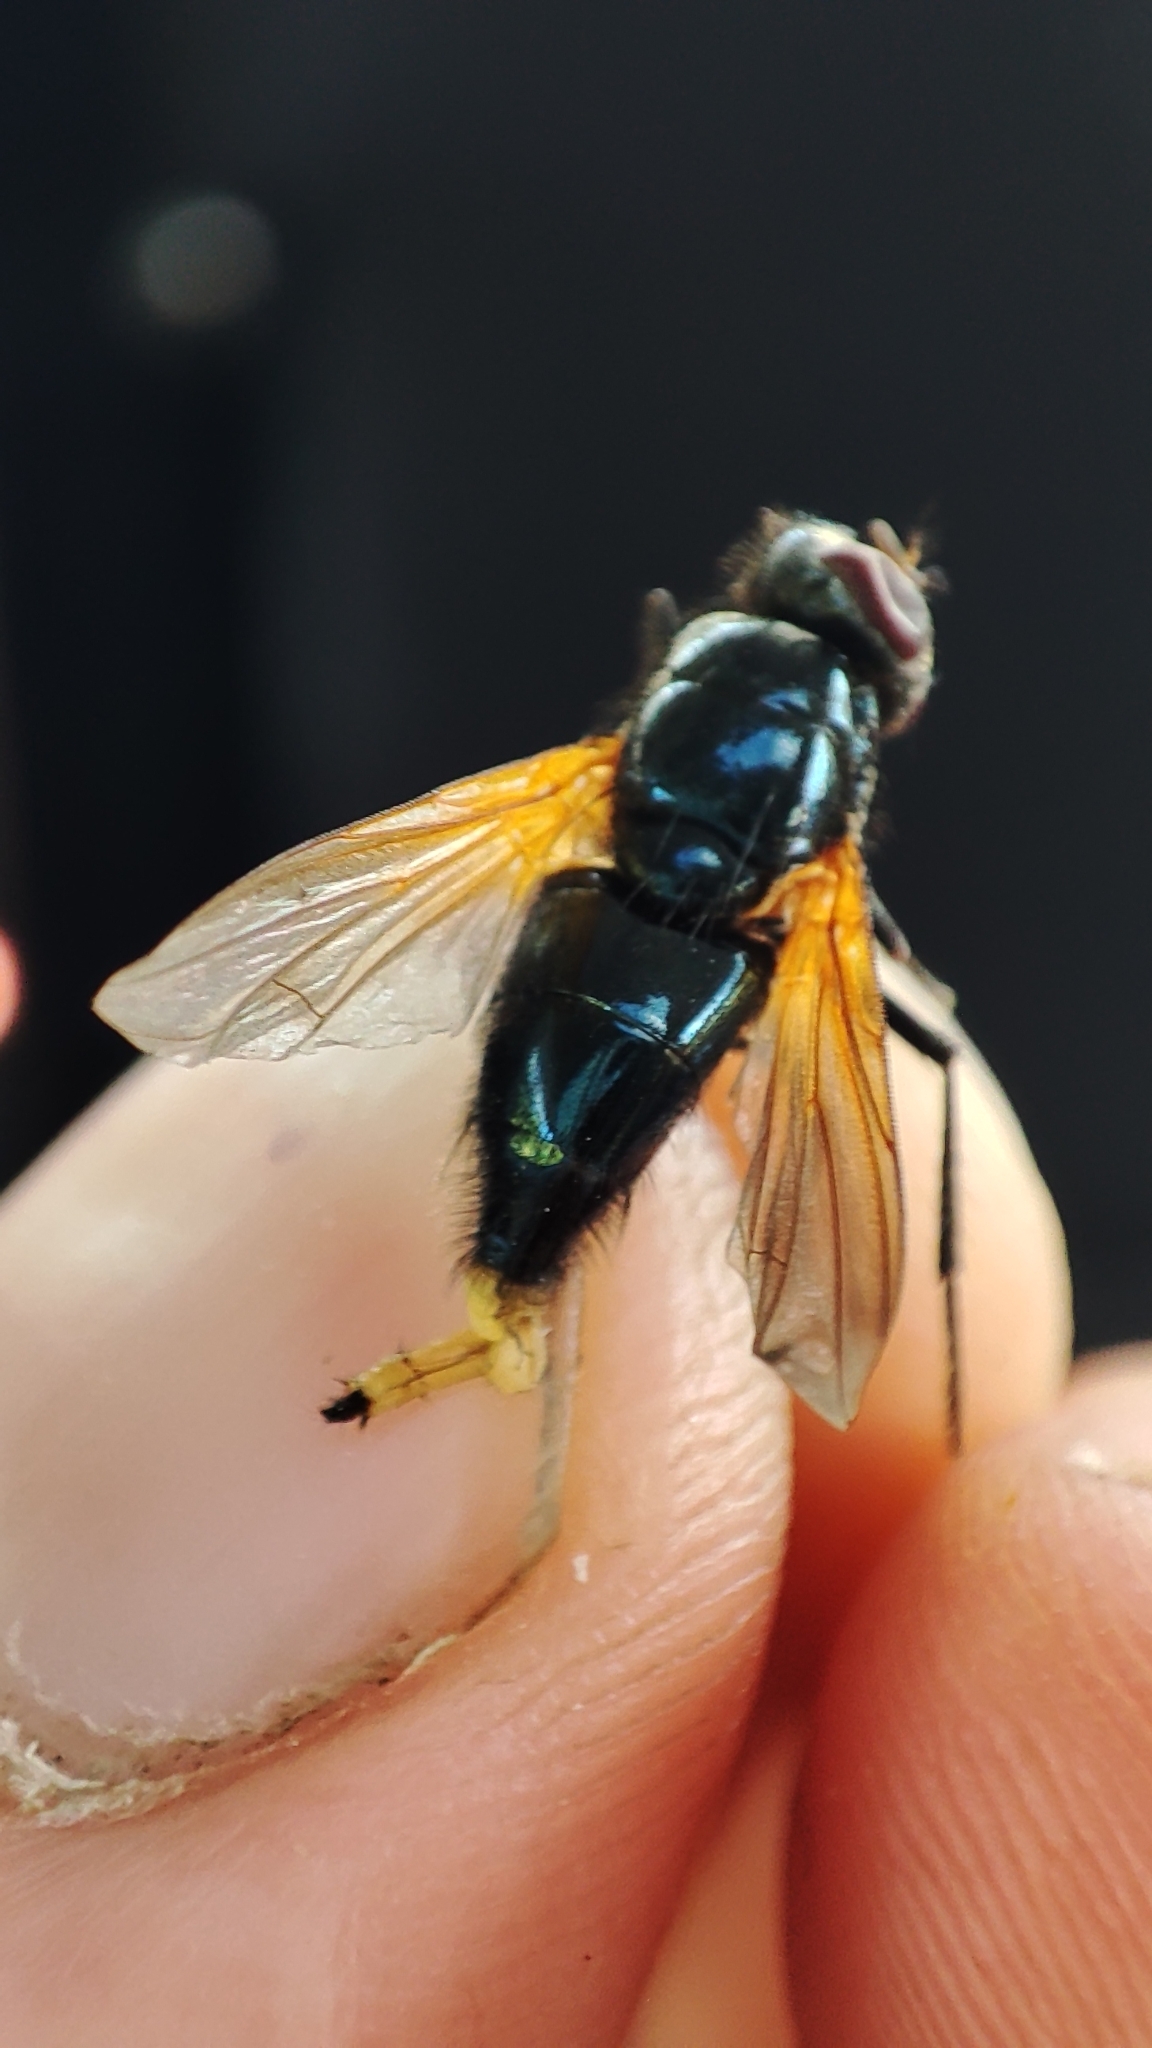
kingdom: Animalia
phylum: Arthropoda
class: Insecta
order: Diptera
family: Muscidae
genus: Mesembrina
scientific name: Mesembrina resplendens
